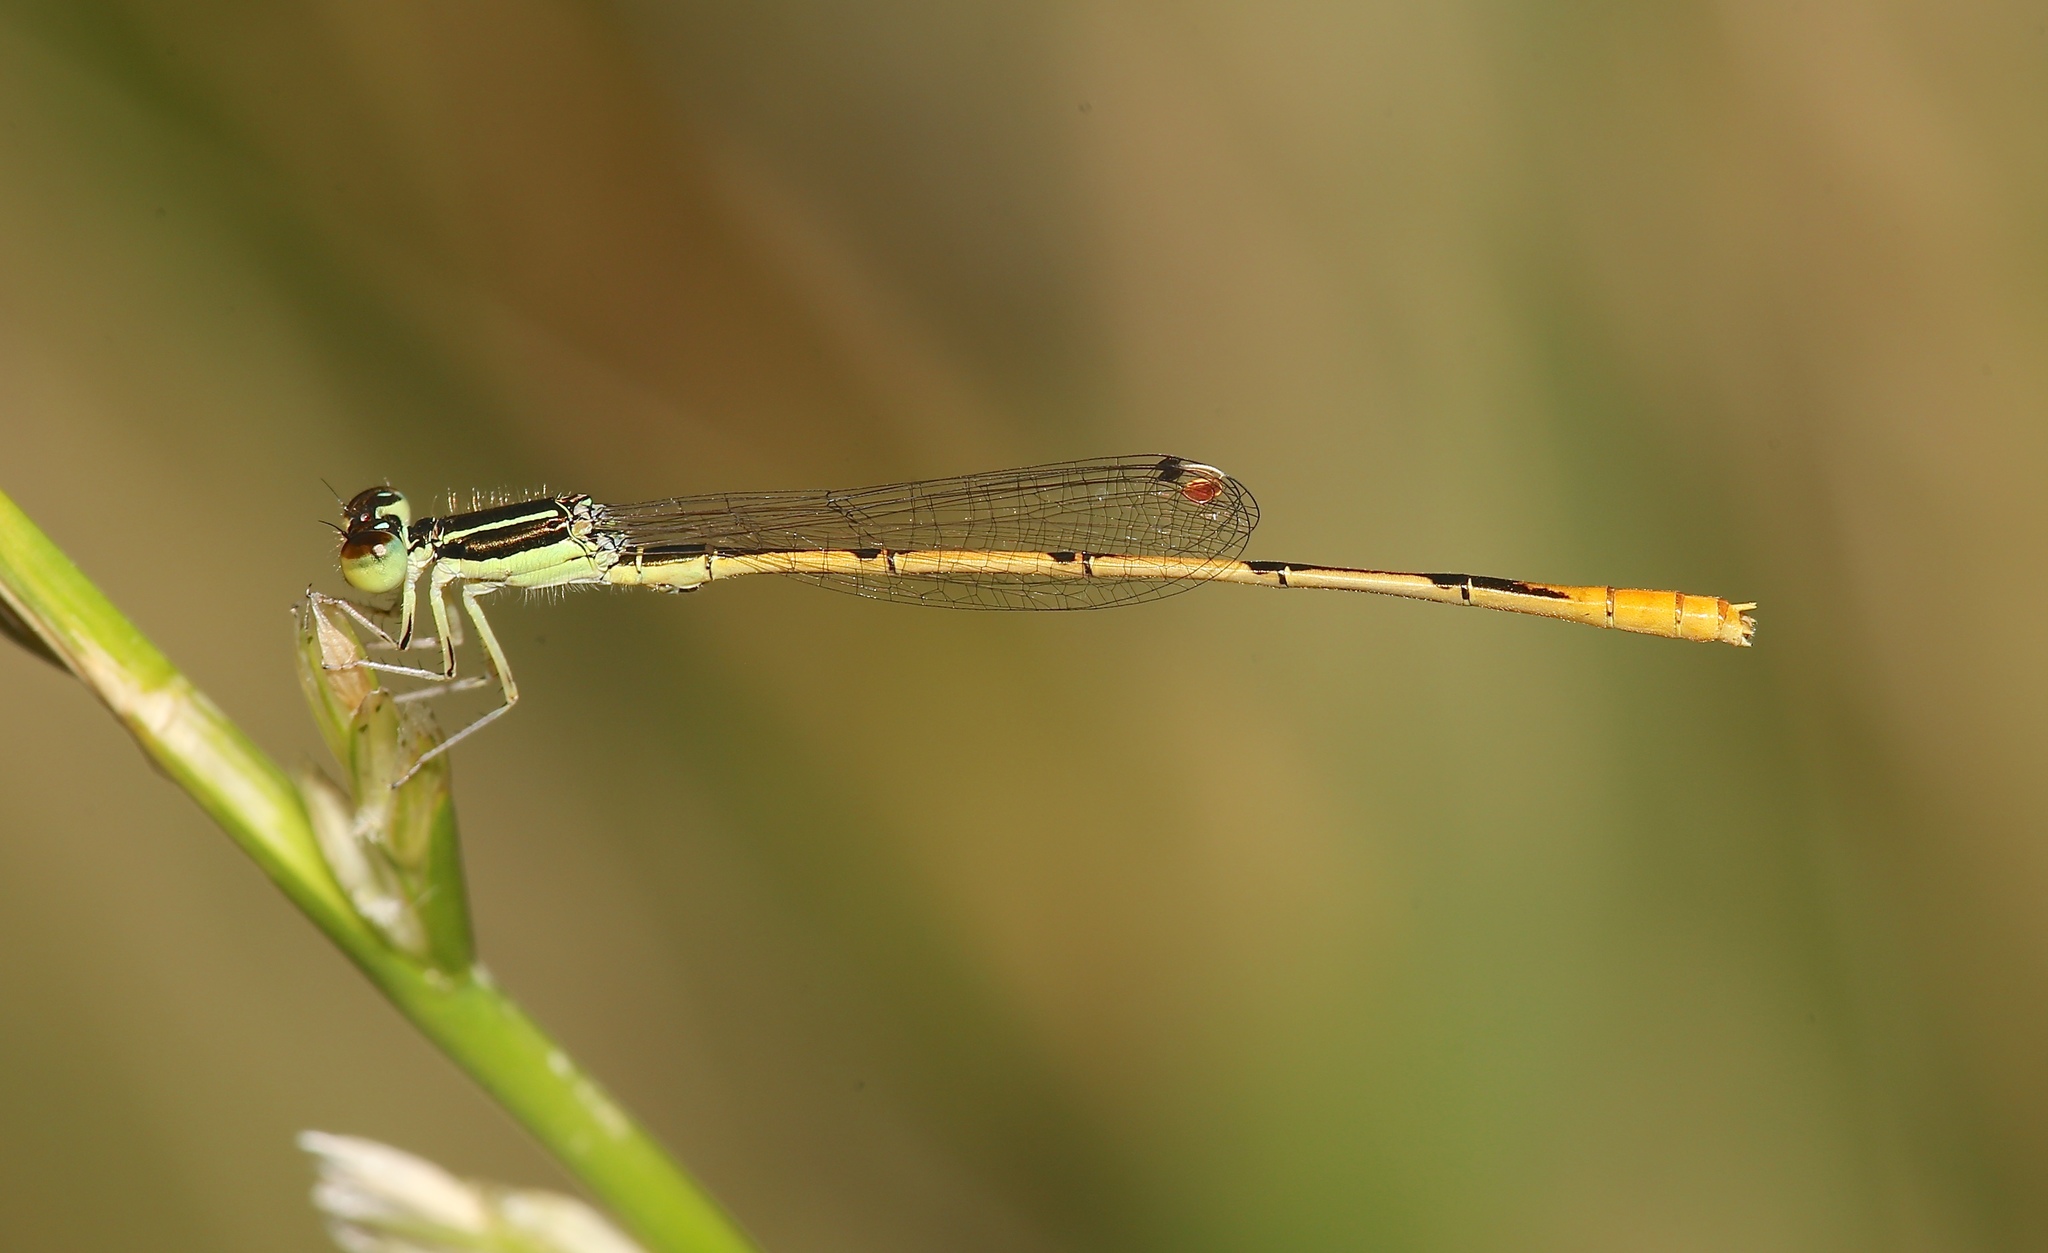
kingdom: Animalia
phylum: Arthropoda
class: Insecta
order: Odonata
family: Coenagrionidae
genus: Ischnura
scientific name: Ischnura hastata
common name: Citrine forktail
